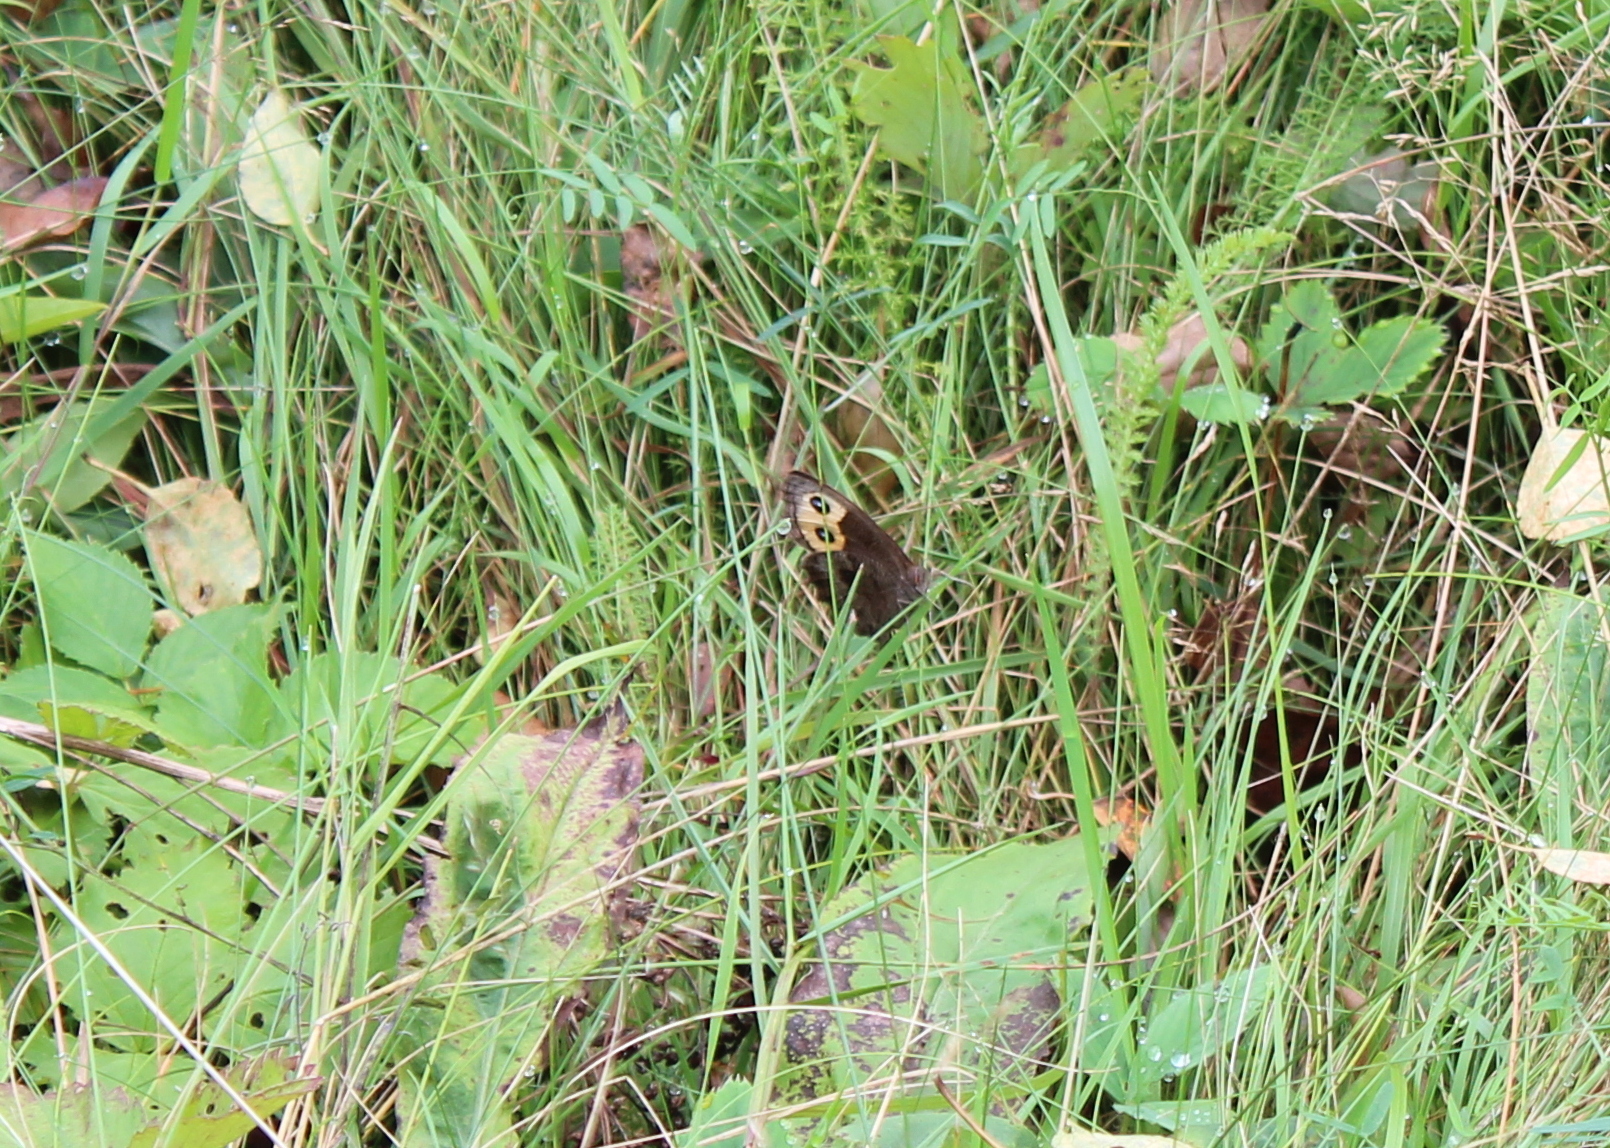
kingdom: Animalia
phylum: Arthropoda
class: Insecta
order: Lepidoptera
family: Nymphalidae
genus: Cercyonis
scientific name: Cercyonis pegala
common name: Common wood-nymph
